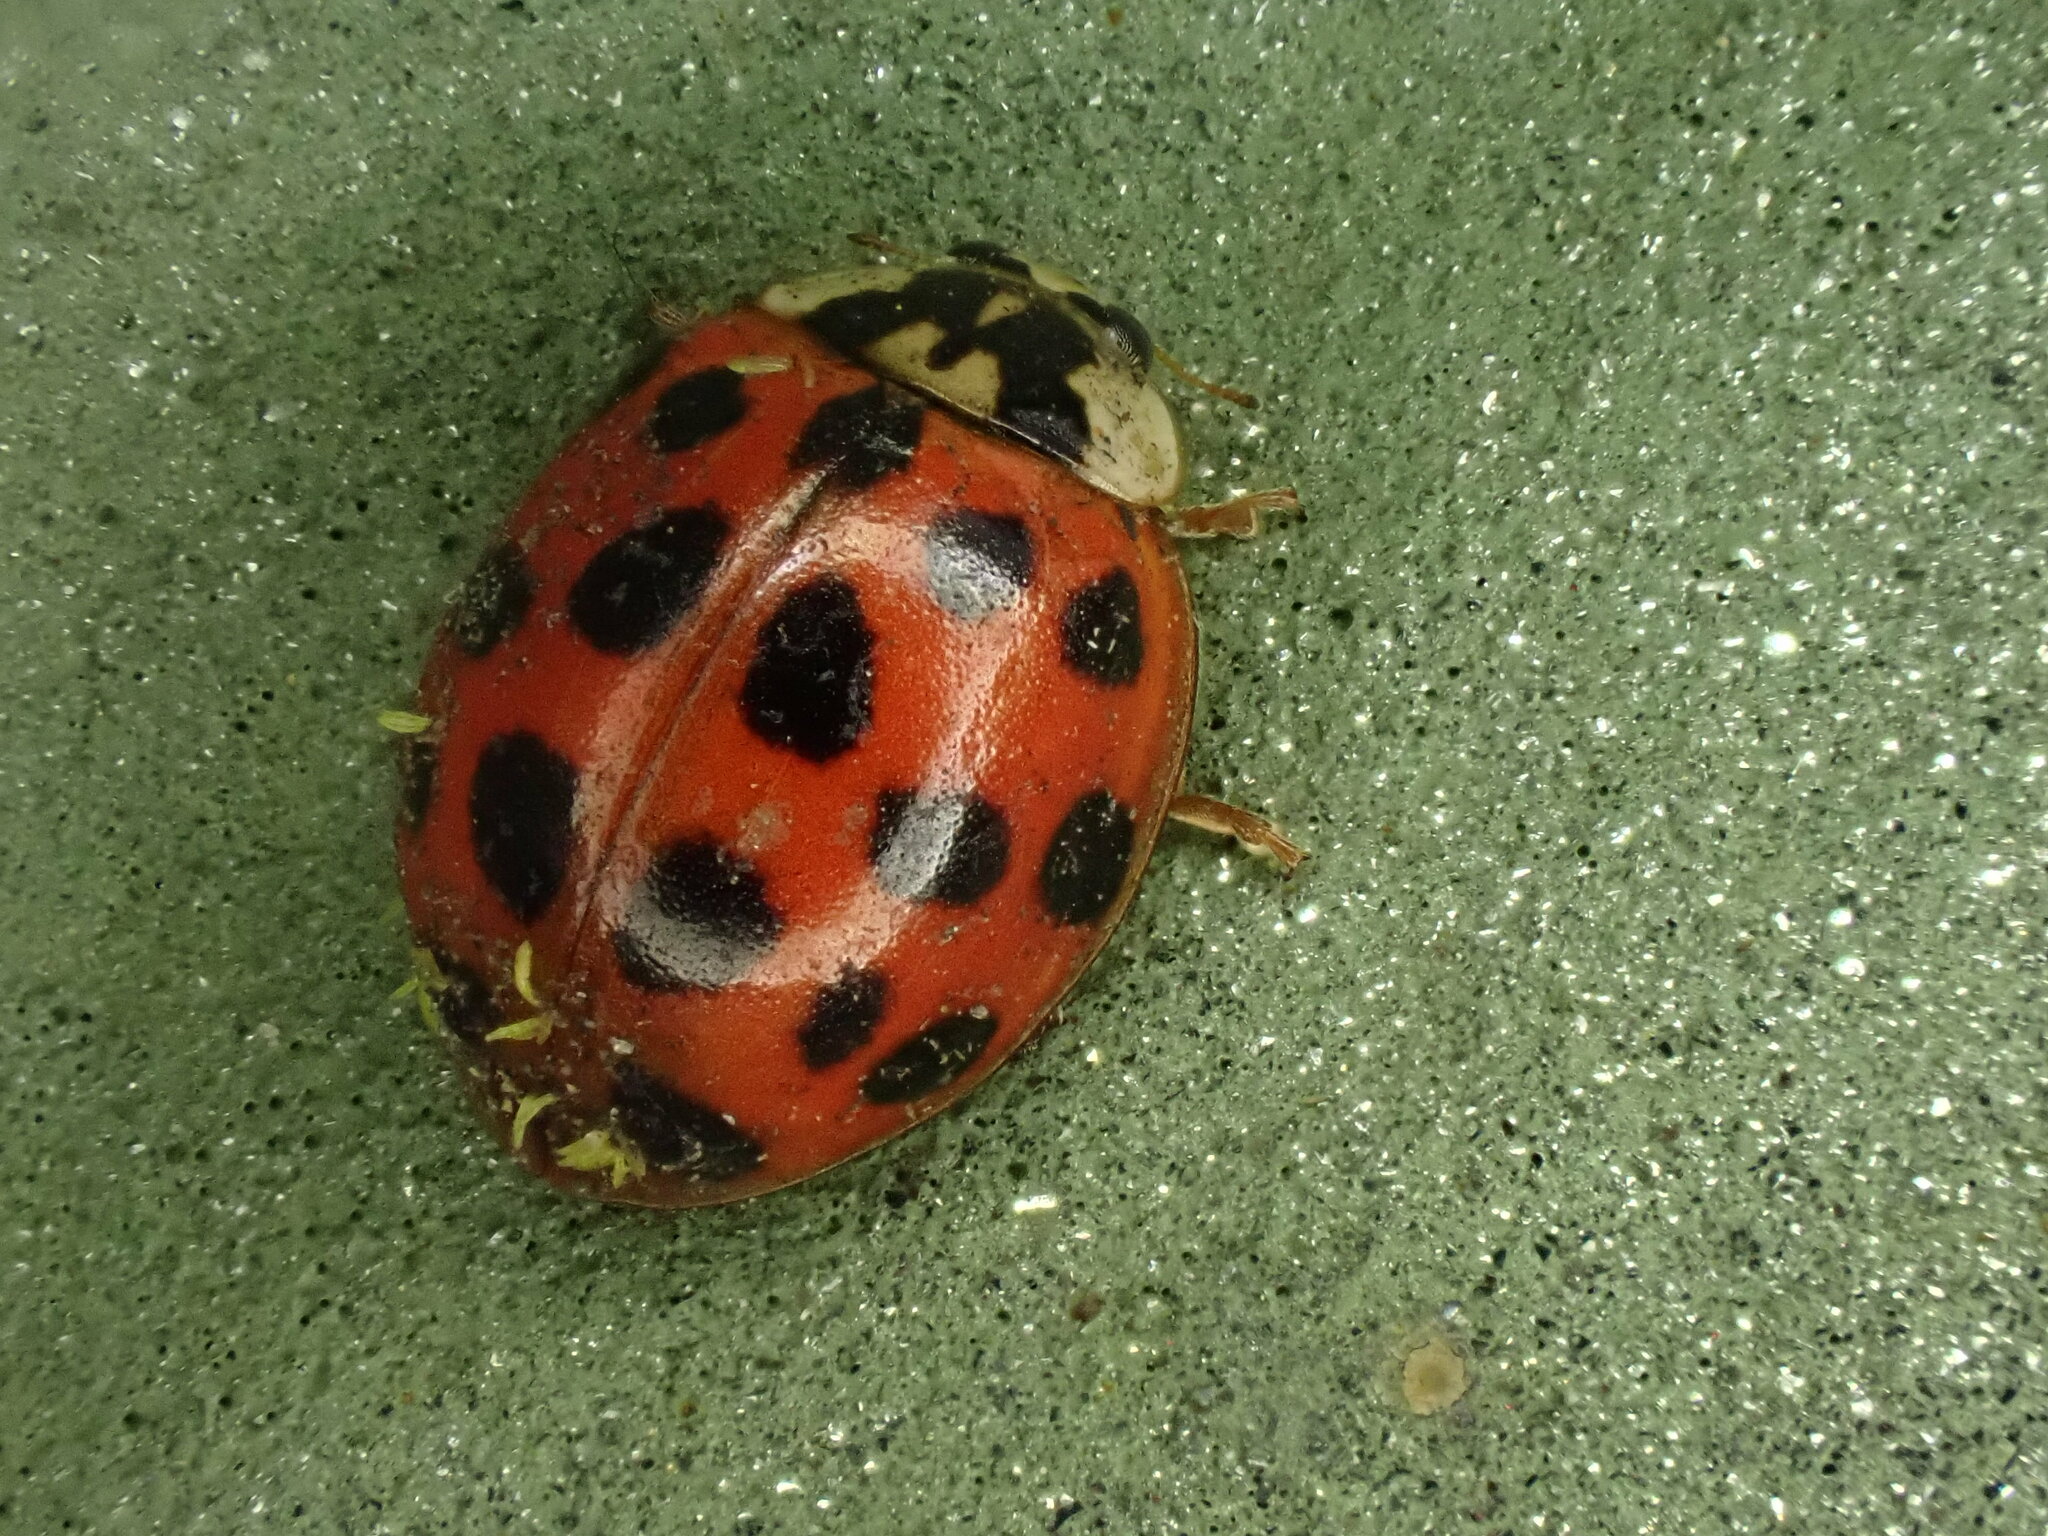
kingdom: Animalia
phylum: Arthropoda
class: Insecta
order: Coleoptera
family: Coccinellidae
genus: Harmonia
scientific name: Harmonia axyridis
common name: Harlequin ladybird
